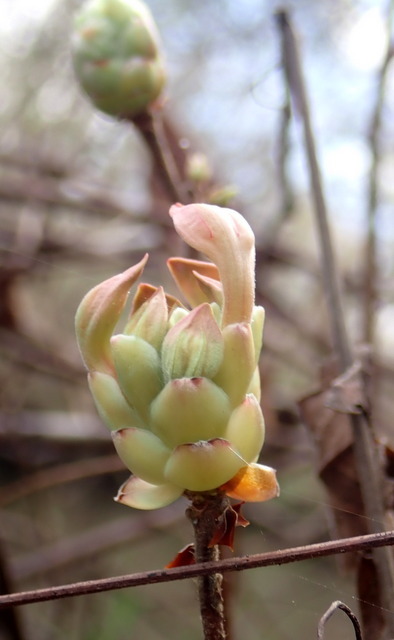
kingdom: Plantae
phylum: Tracheophyta
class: Magnoliopsida
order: Ericales
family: Ericaceae
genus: Rhododendron
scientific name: Rhododendron canescens
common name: Mountain azalea
